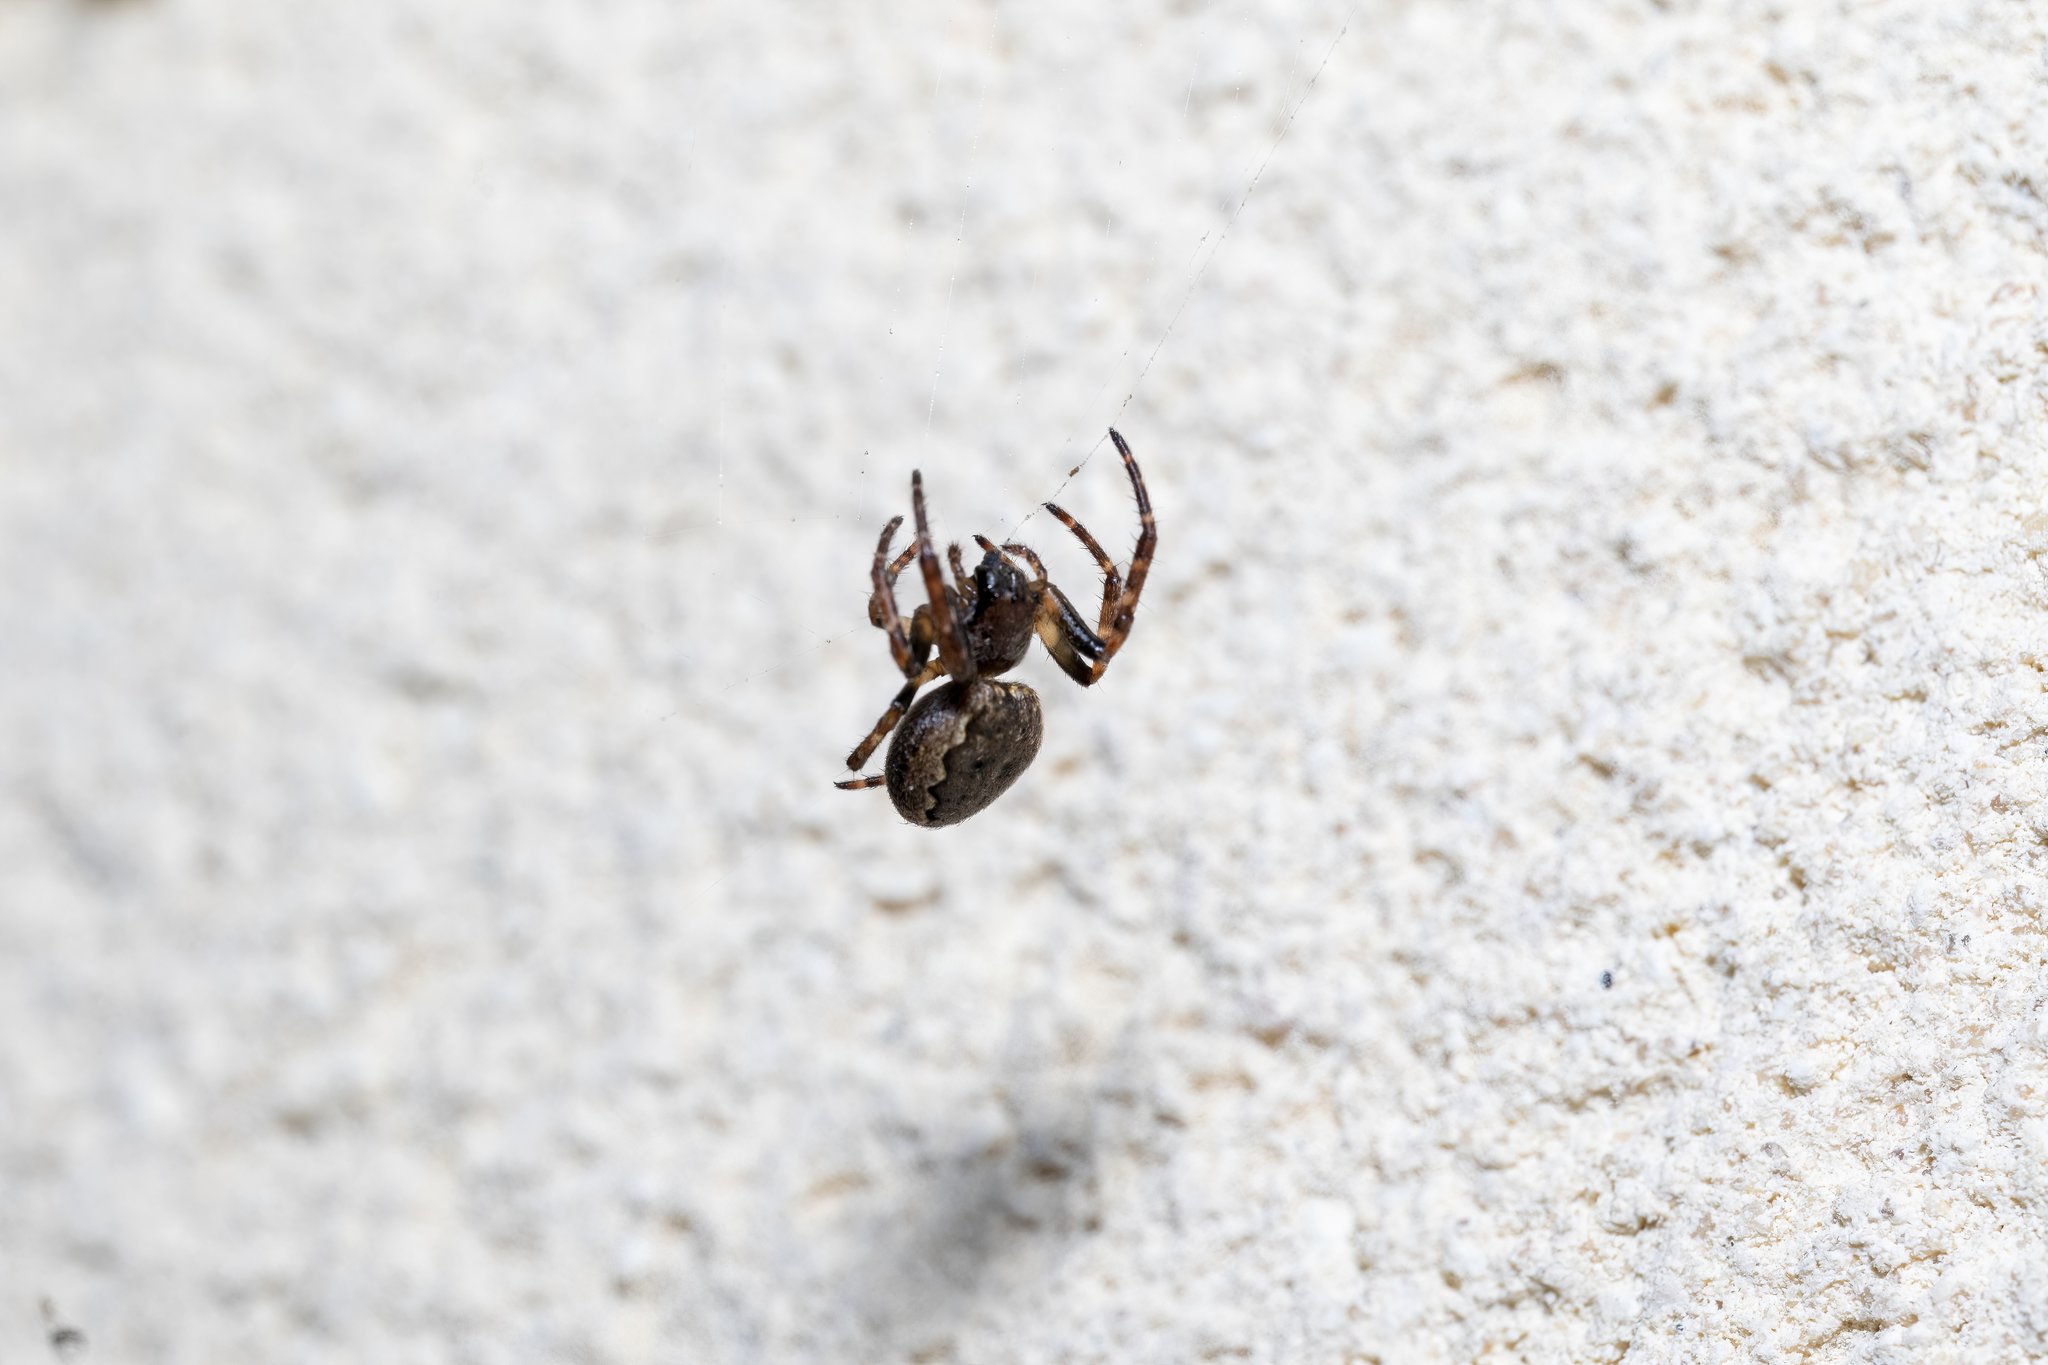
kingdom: Animalia
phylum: Arthropoda
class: Arachnida
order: Araneae
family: Araneidae
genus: Nuctenea
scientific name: Nuctenea umbratica
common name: Toad spider
